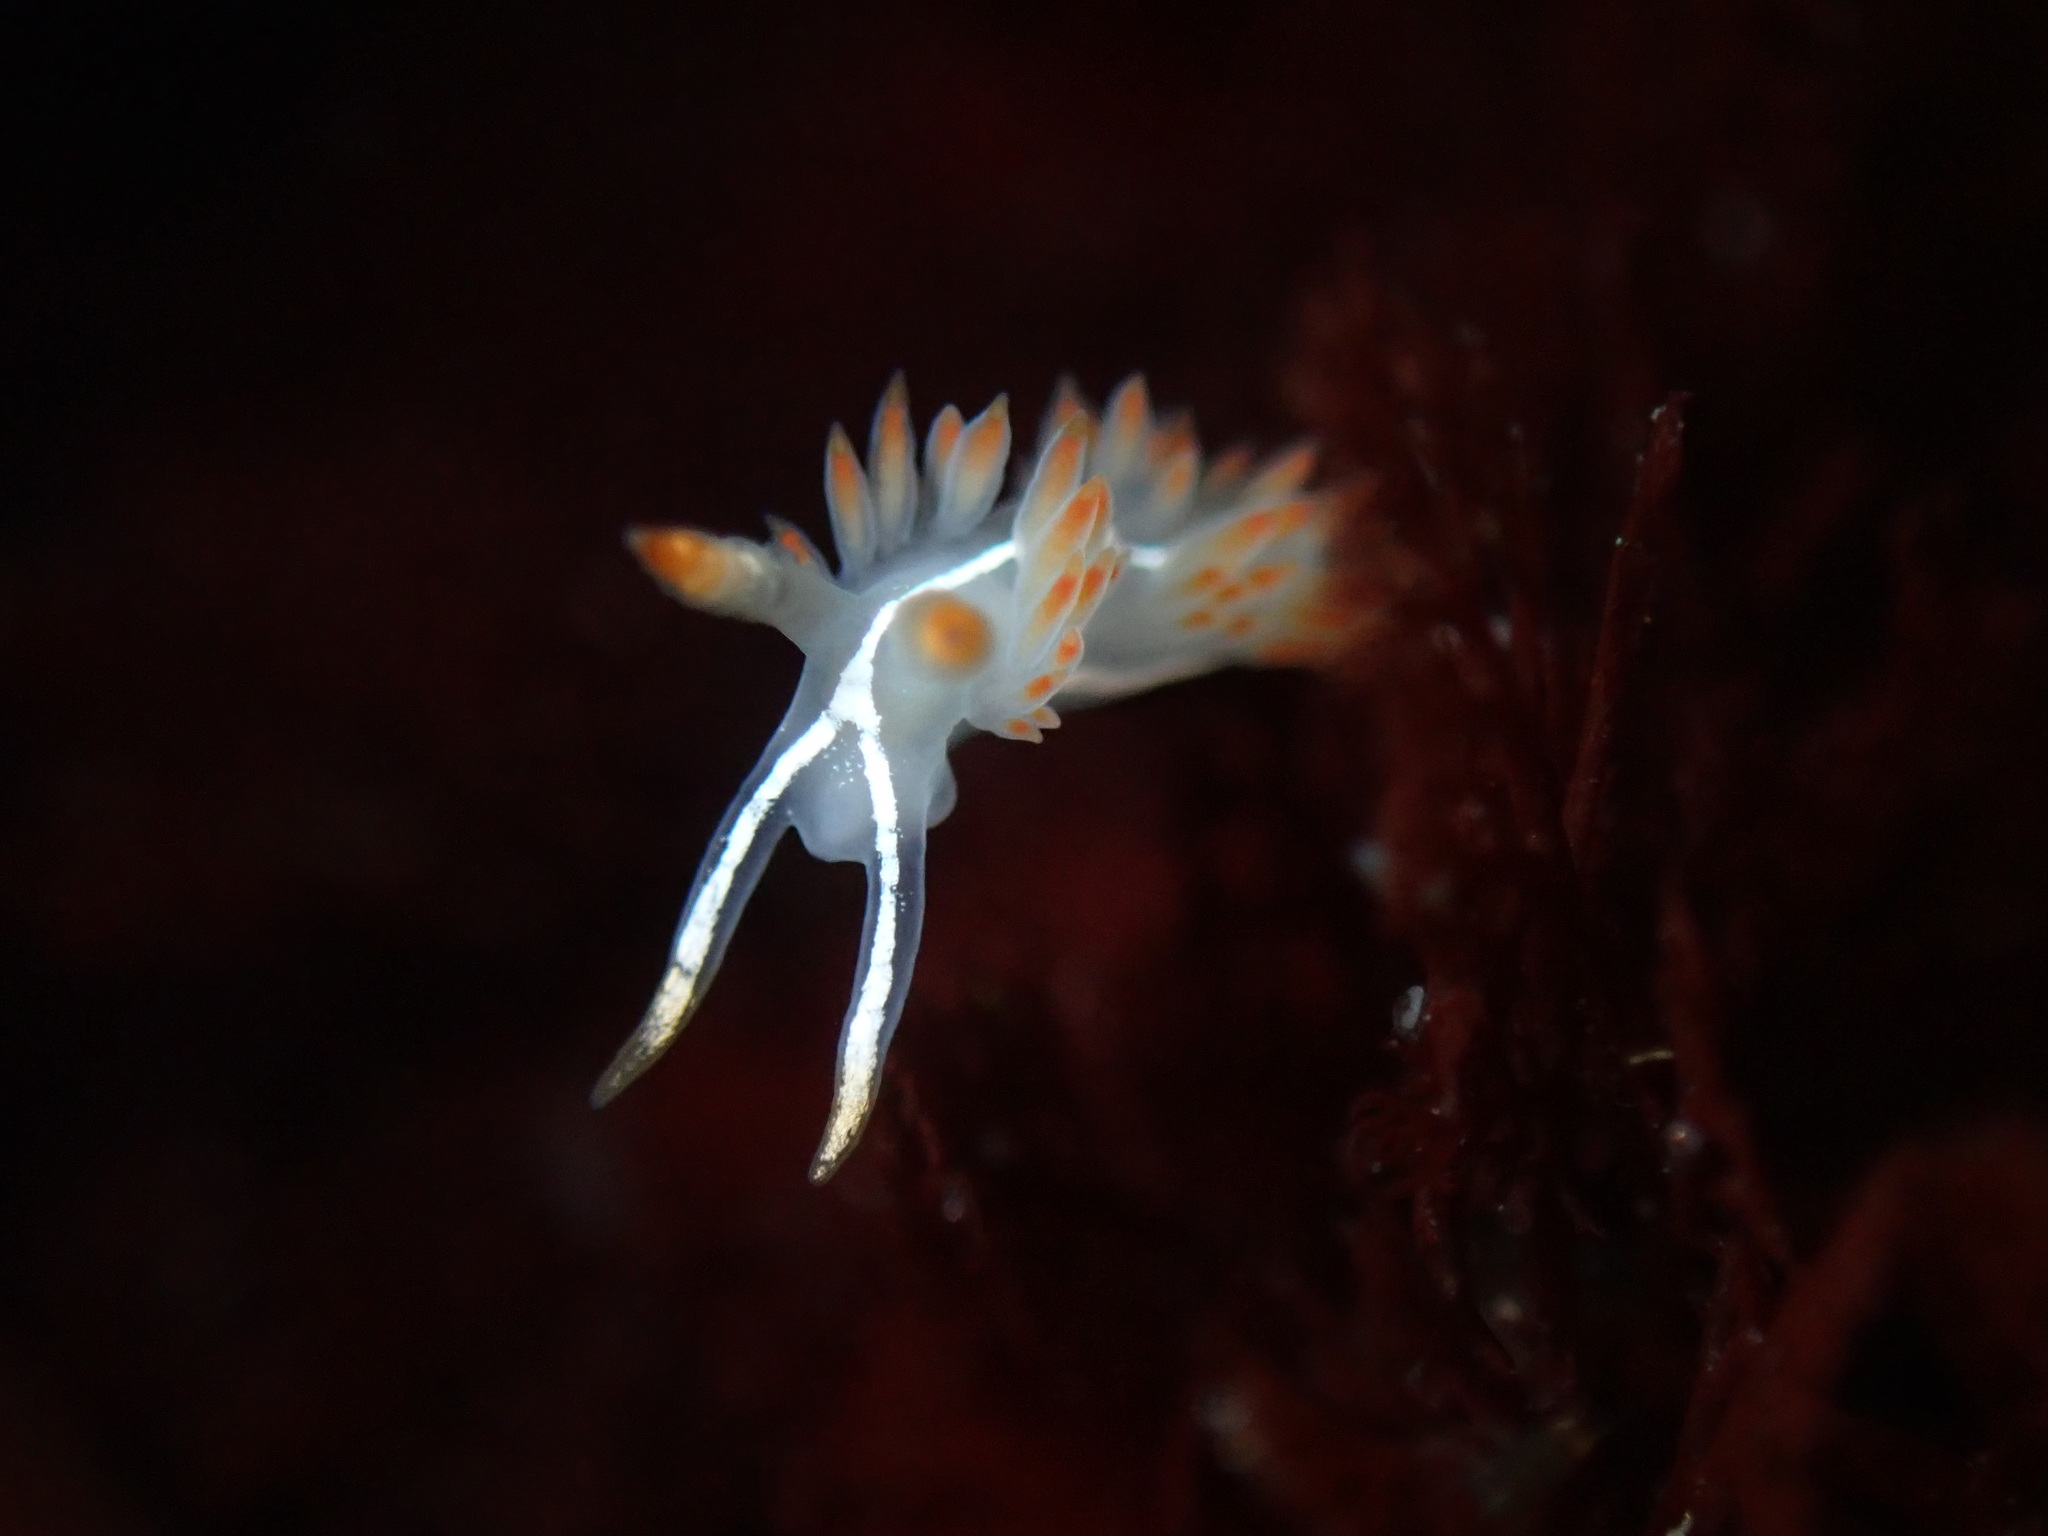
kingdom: Animalia
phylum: Mollusca
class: Gastropoda
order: Nudibranchia
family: Coryphellidae
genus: Coryphella
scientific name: Coryphella trilineata
